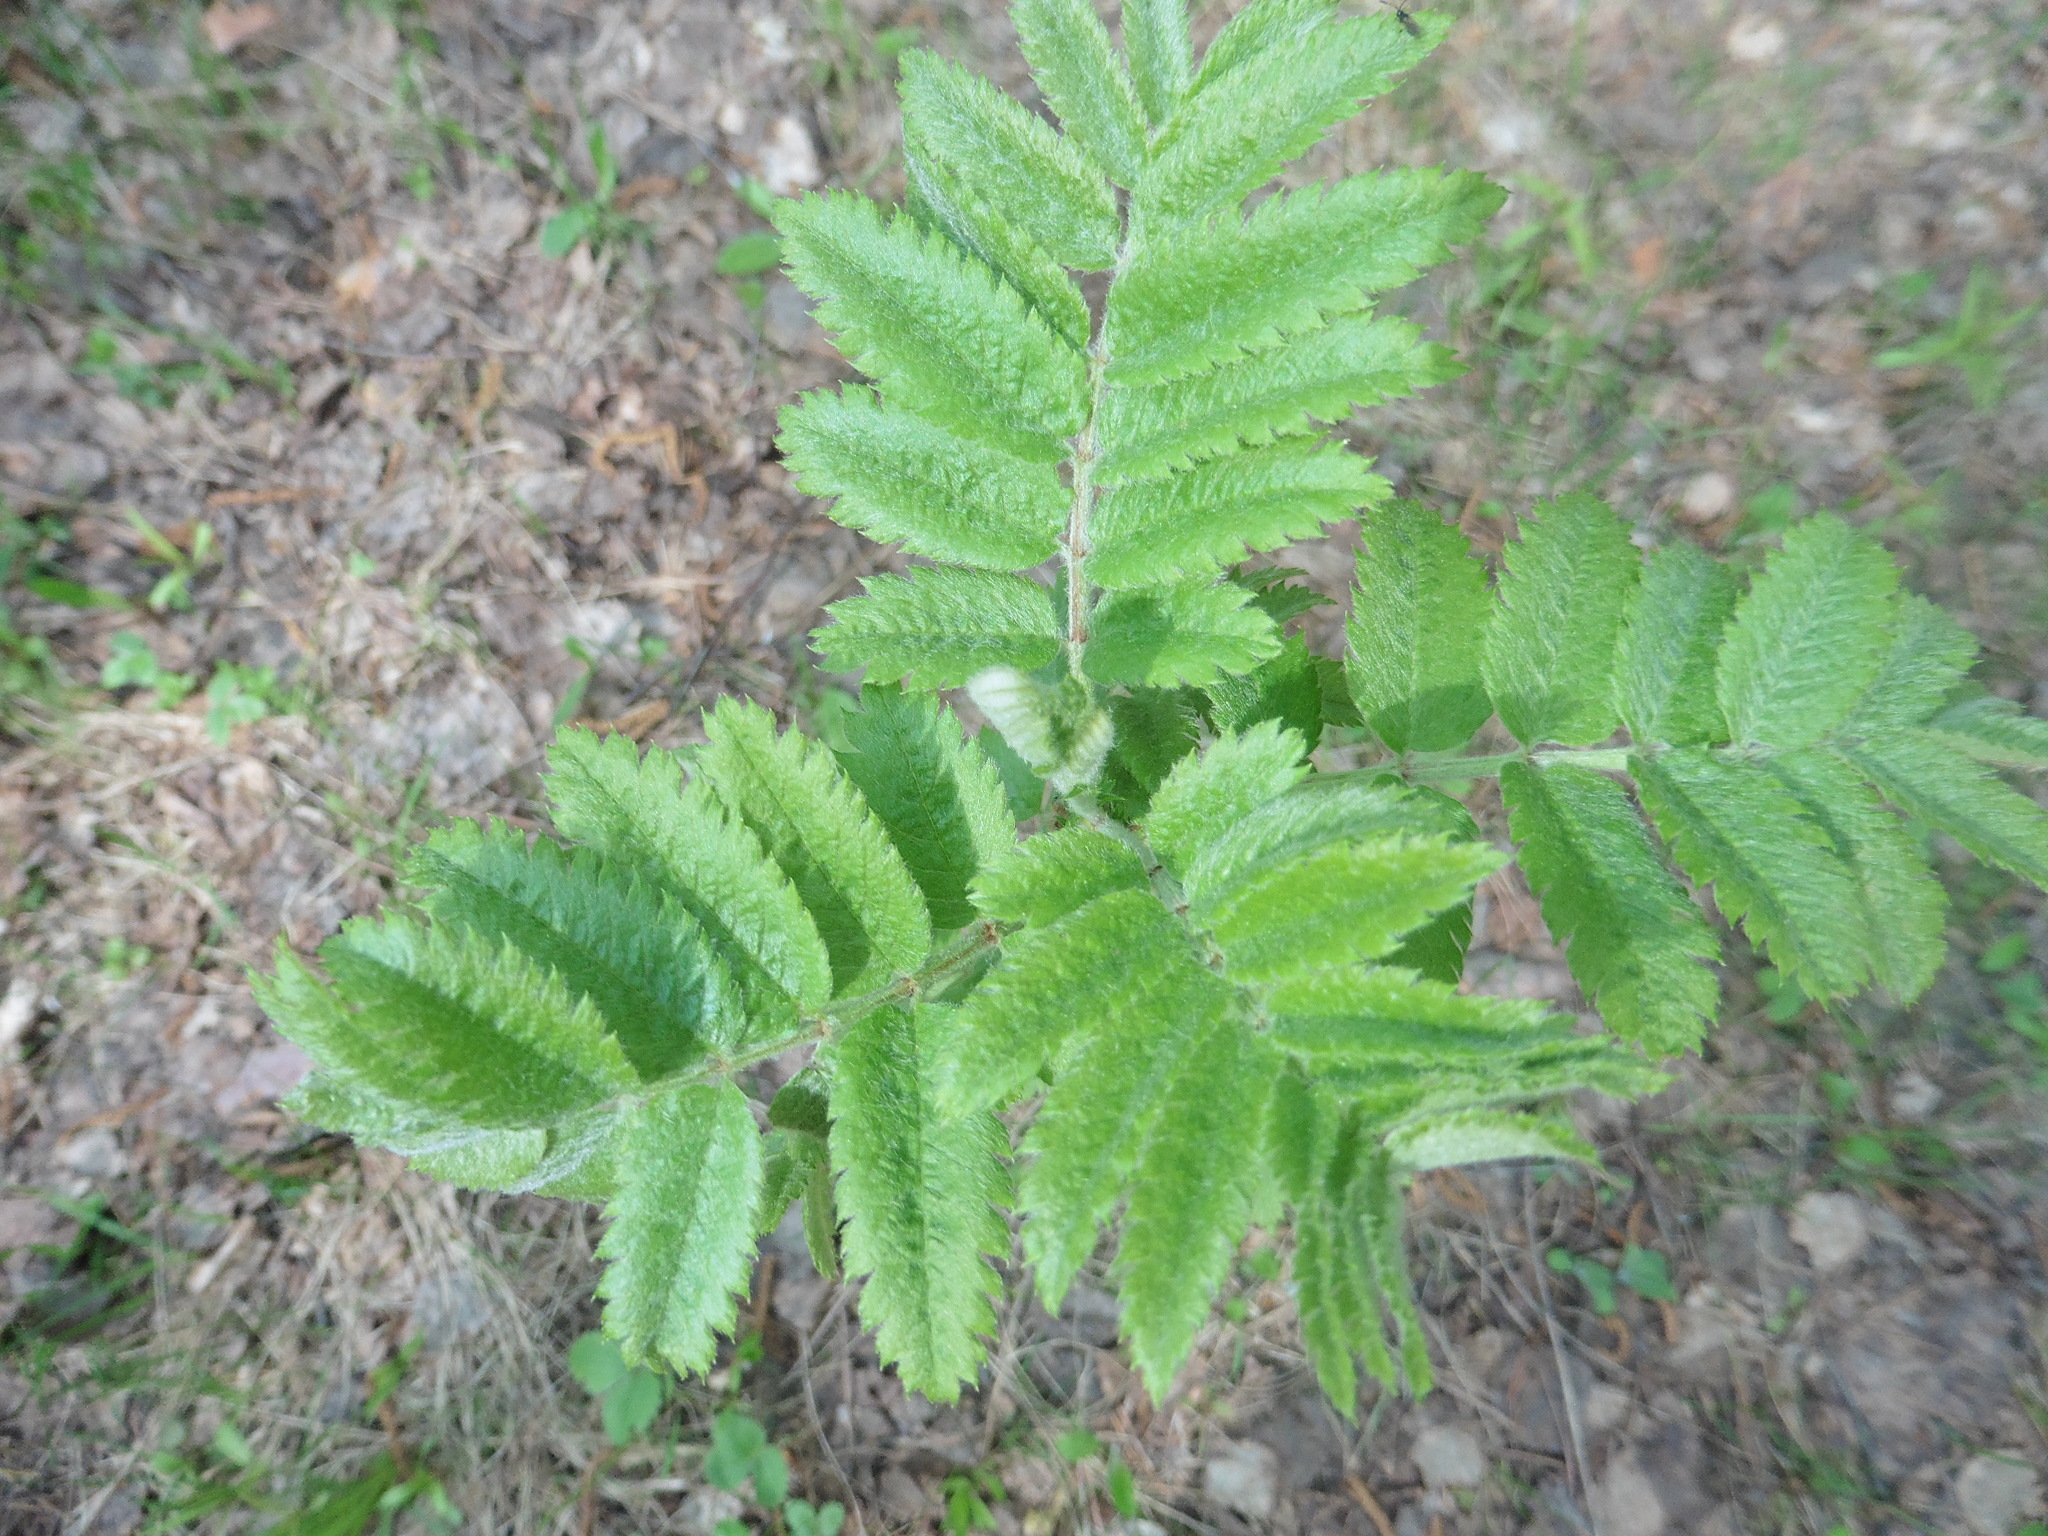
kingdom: Plantae
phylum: Tracheophyta
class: Magnoliopsida
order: Rosales
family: Rosaceae
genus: Sorbus
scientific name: Sorbus aucuparia
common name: Rowan
